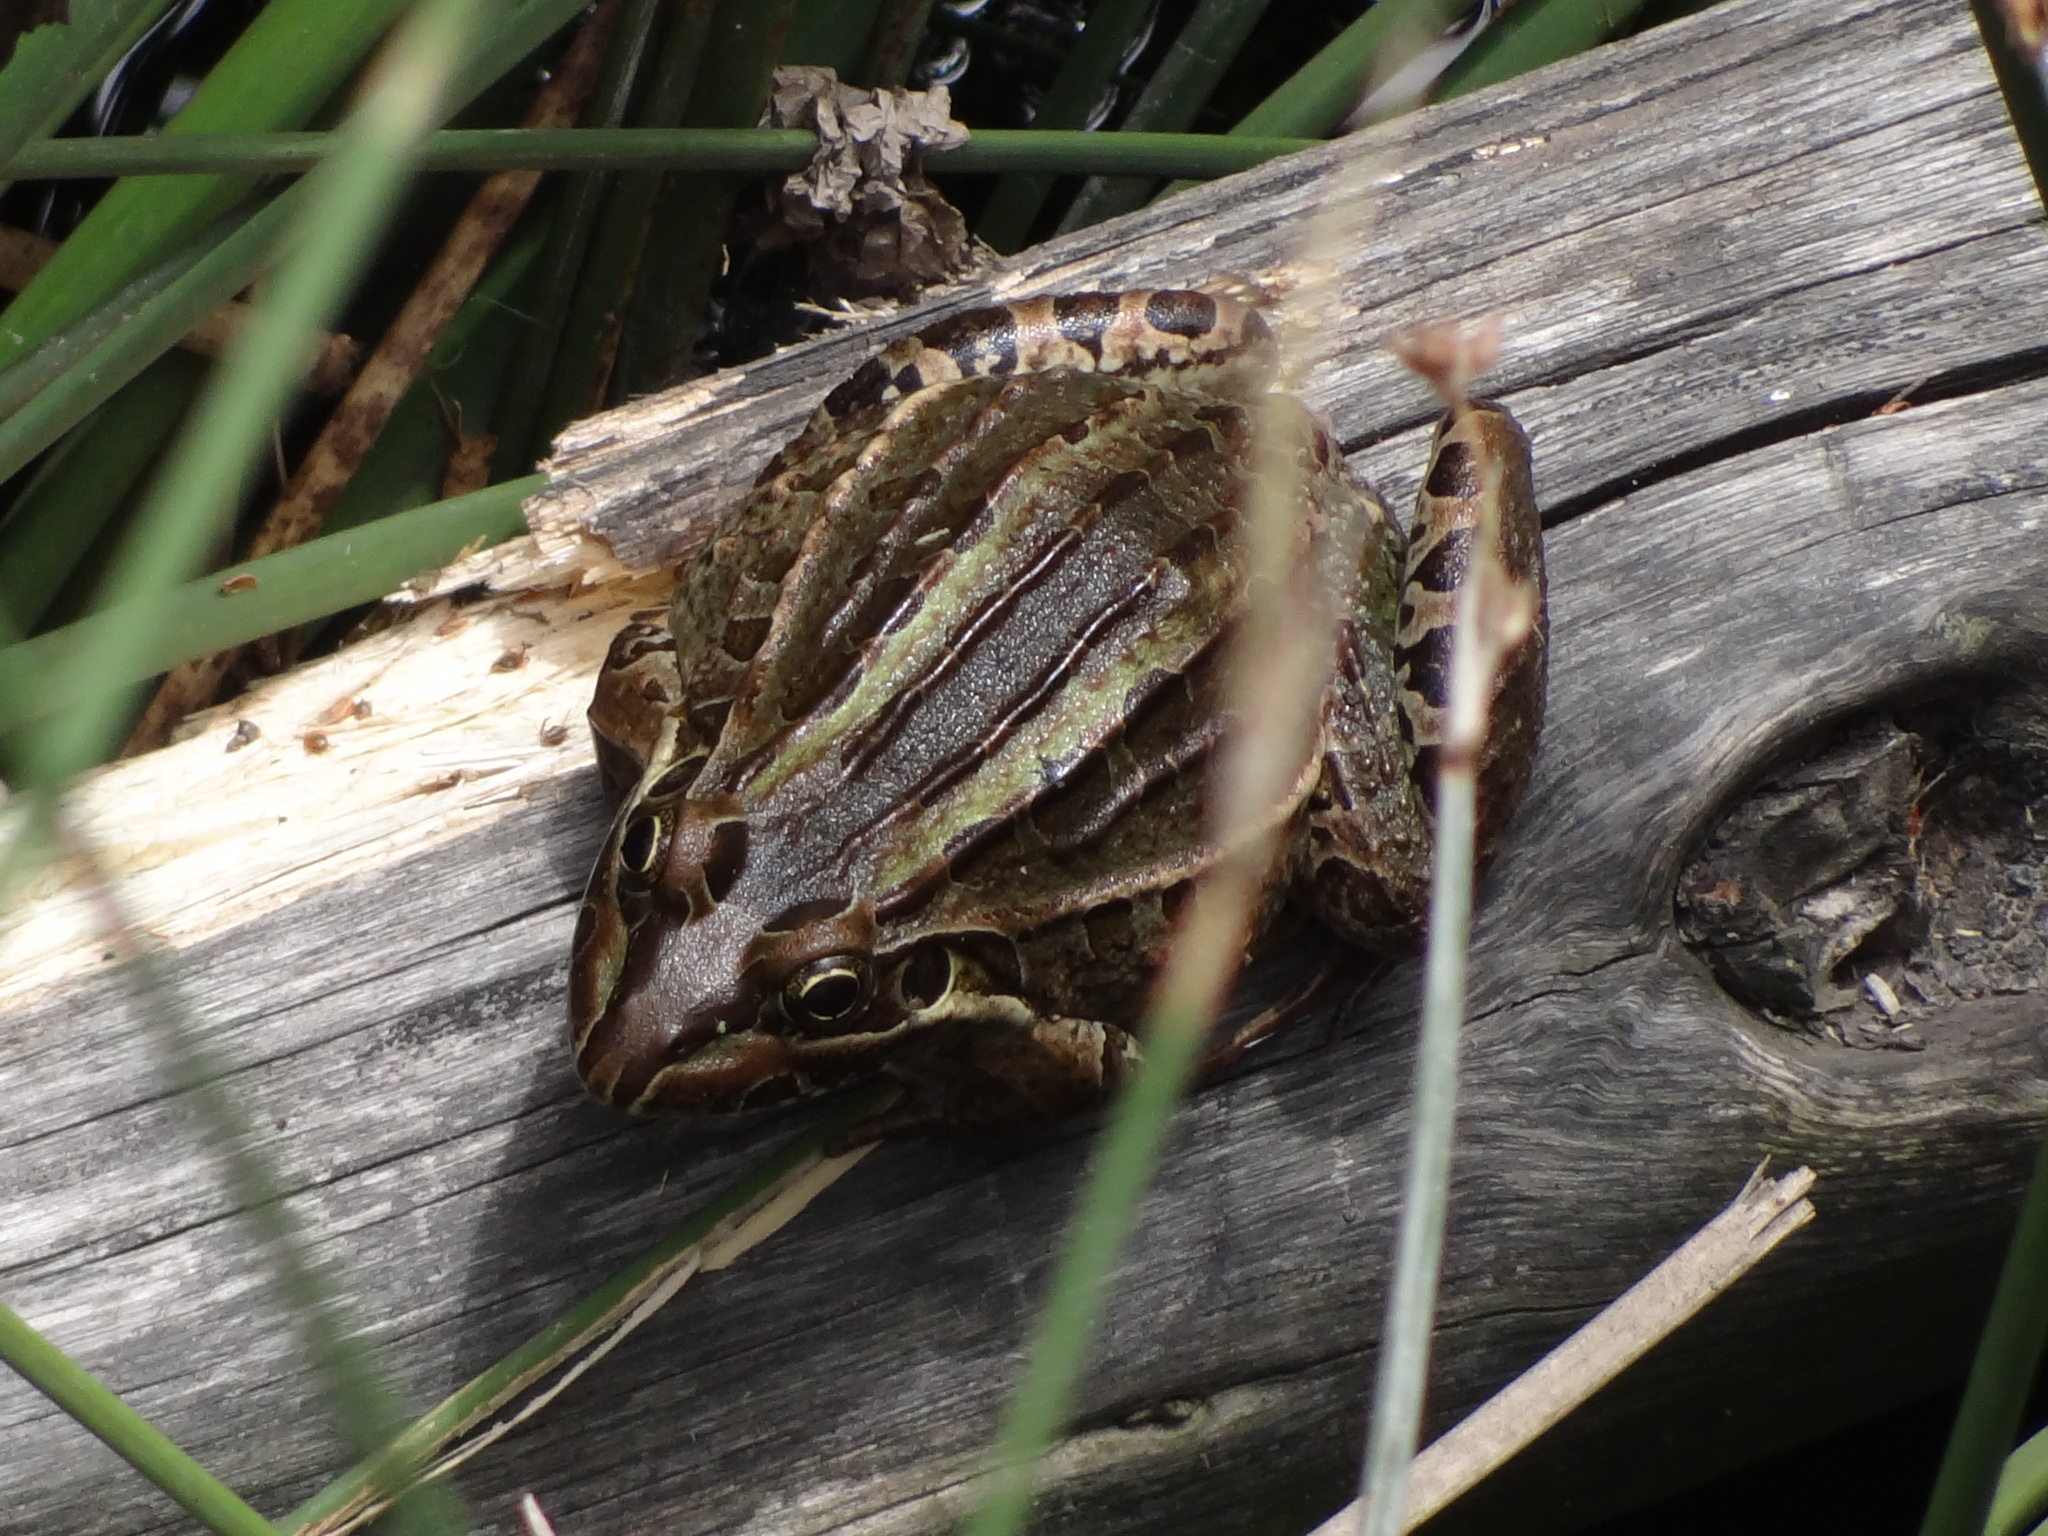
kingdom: Animalia
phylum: Chordata
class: Amphibia
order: Anura
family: Leptodactylidae
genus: Leptodactylus
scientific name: Leptodactylus luctator
